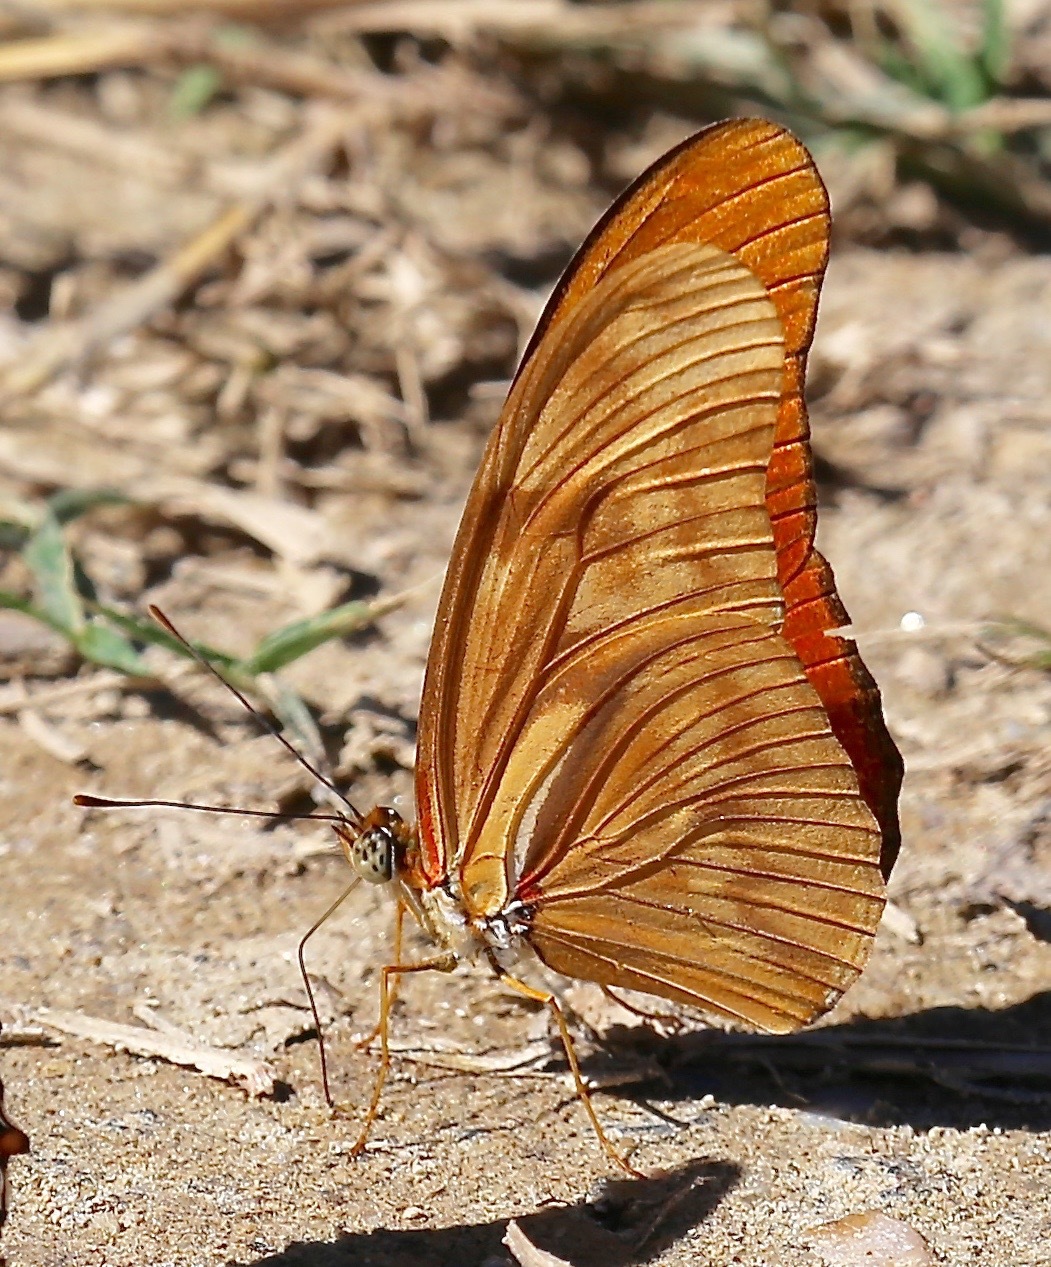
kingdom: Animalia
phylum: Arthropoda
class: Insecta
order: Lepidoptera
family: Nymphalidae
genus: Dryas
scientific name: Dryas iulia
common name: Flambeau
